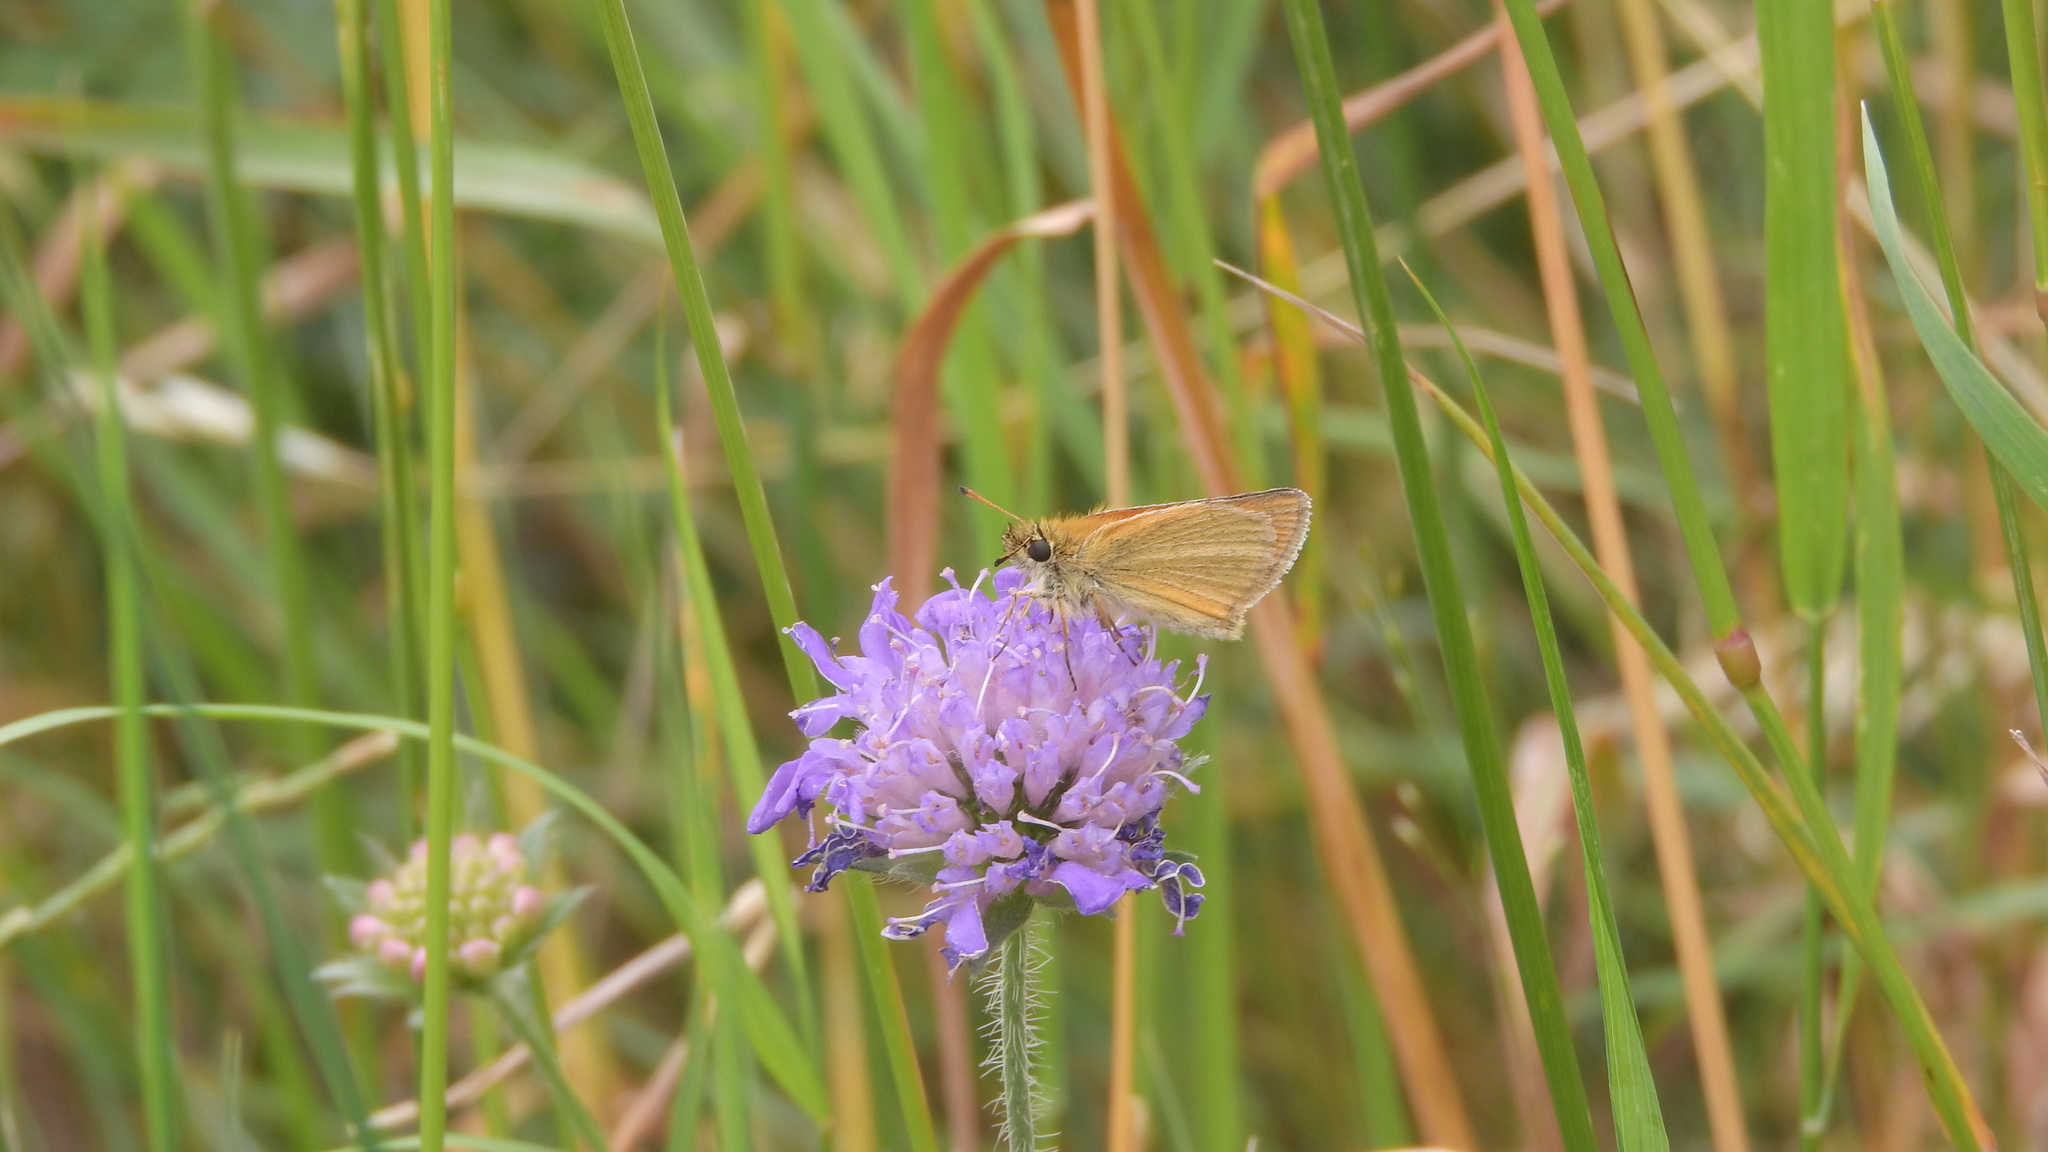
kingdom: Animalia
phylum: Arthropoda
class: Insecta
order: Lepidoptera
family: Hesperiidae
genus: Thymelicus
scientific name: Thymelicus lineola
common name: Essex skipper
